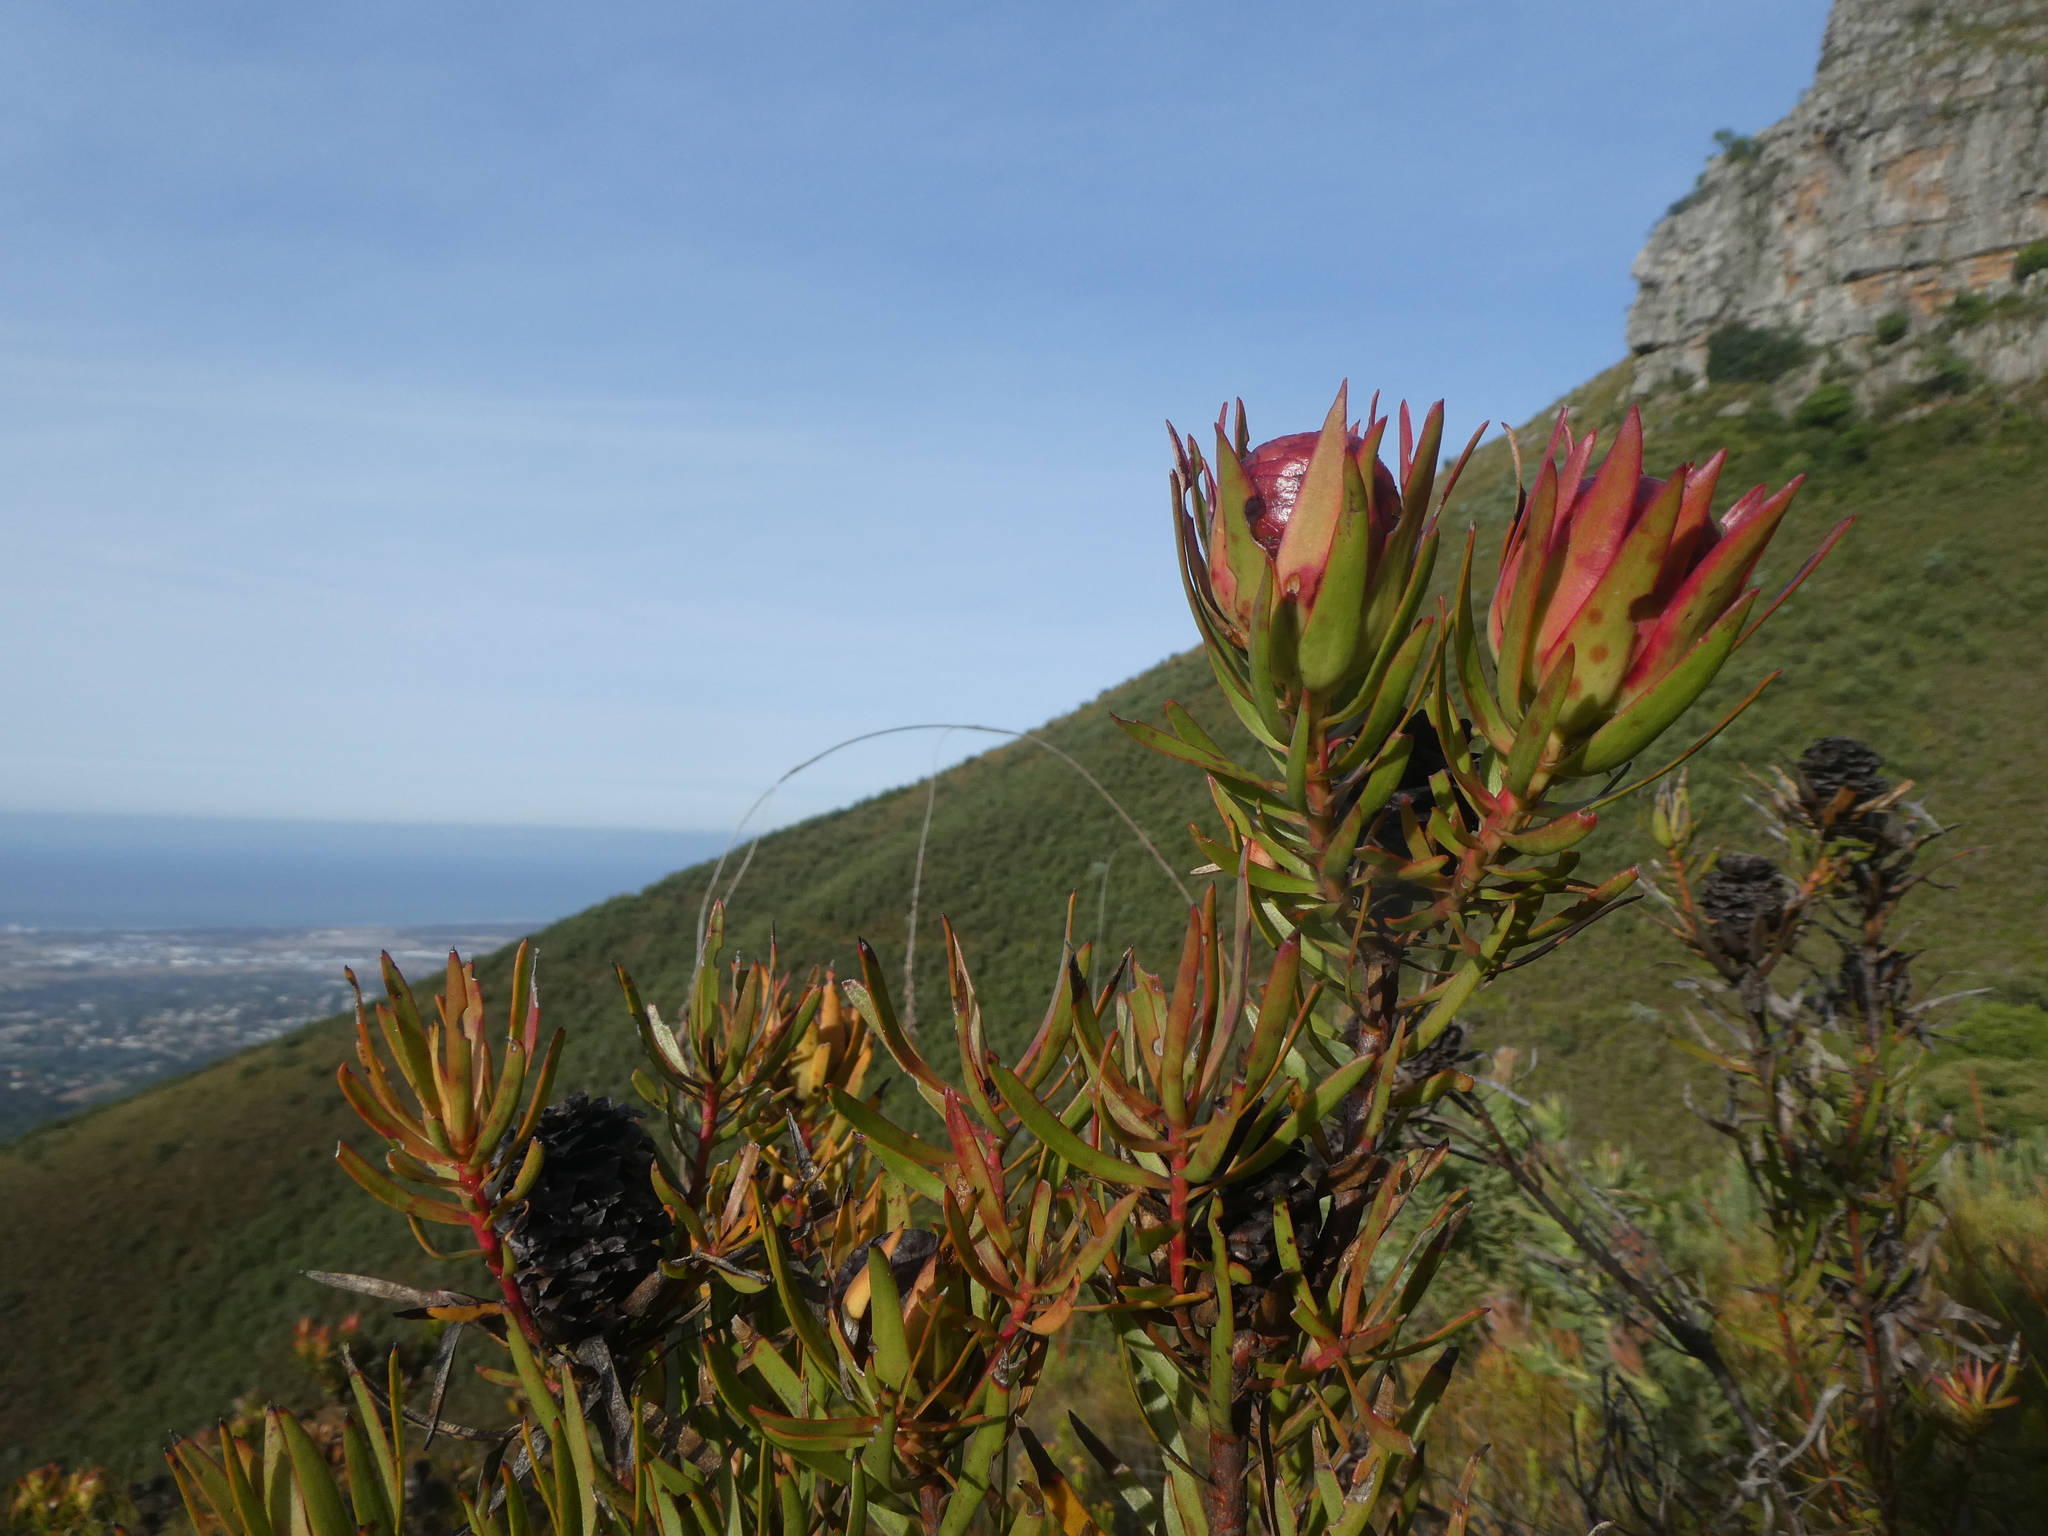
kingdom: Plantae
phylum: Tracheophyta
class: Magnoliopsida
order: Proteales
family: Proteaceae
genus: Leucadendron
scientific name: Leucadendron spissifolium
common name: Spear-leaf conebush
